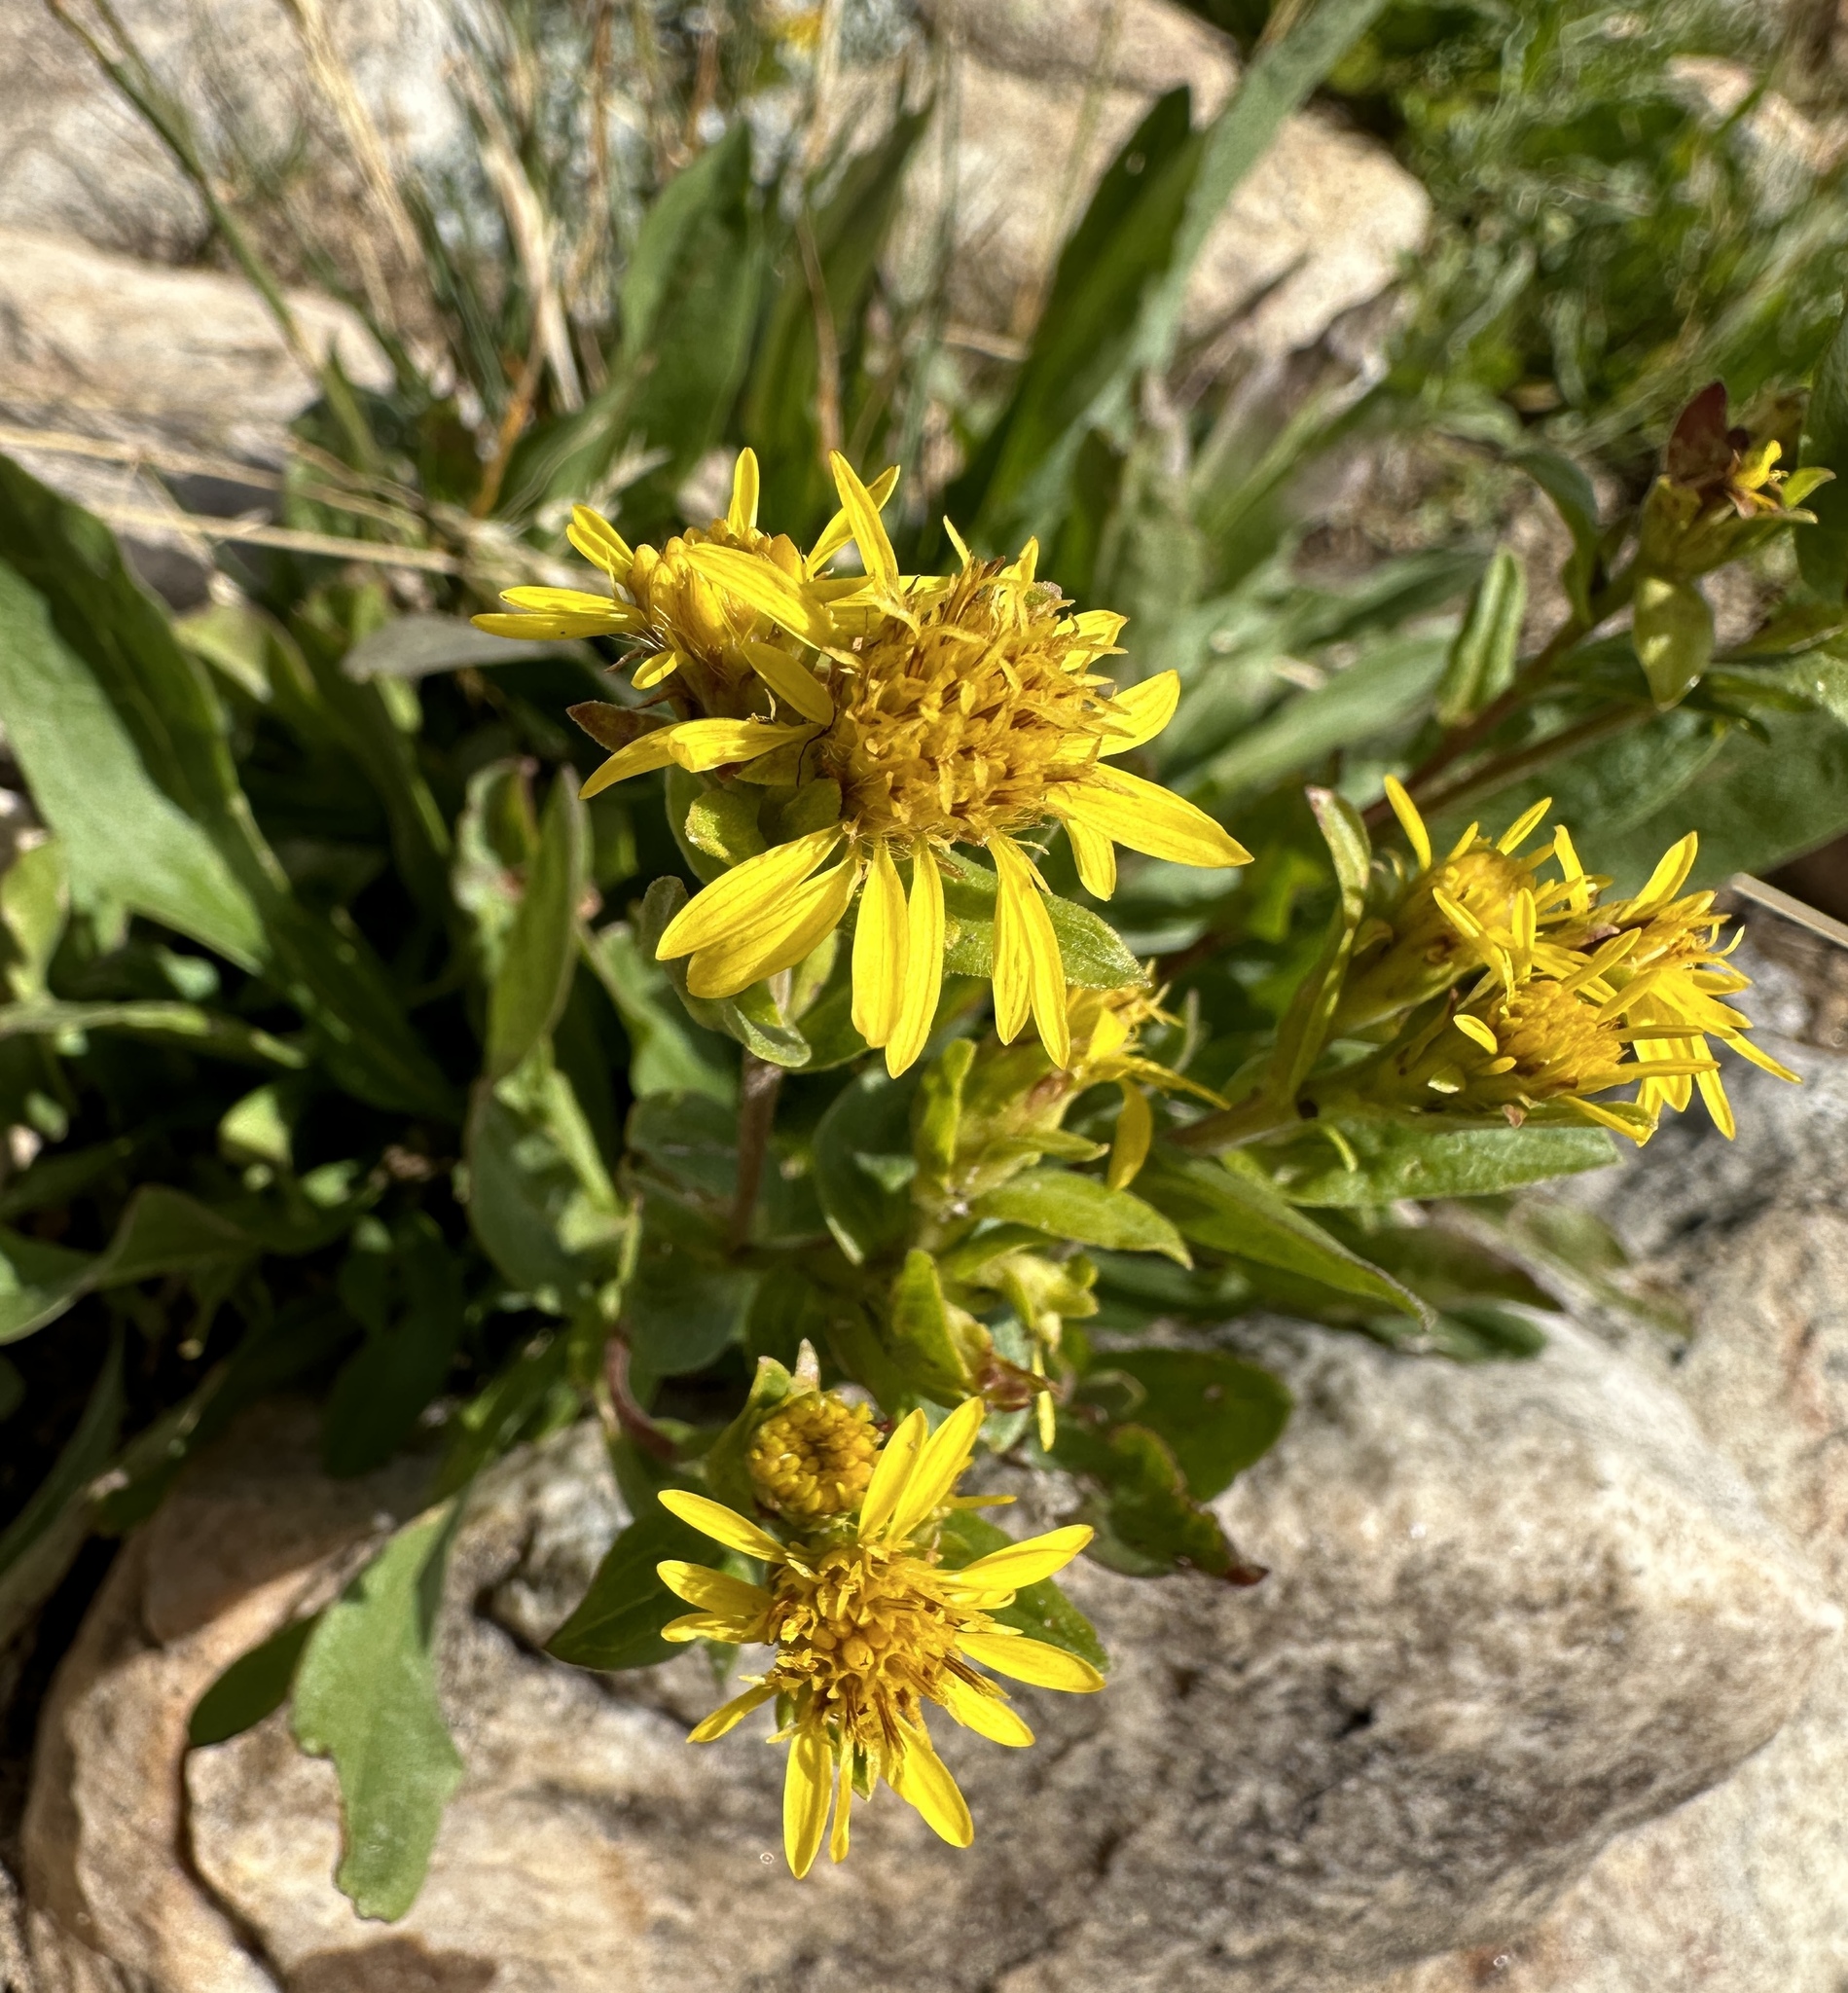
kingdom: Plantae
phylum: Tracheophyta
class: Magnoliopsida
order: Asterales
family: Asteraceae
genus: Solidago
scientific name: Solidago multiradiata
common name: Northern goldenrod
